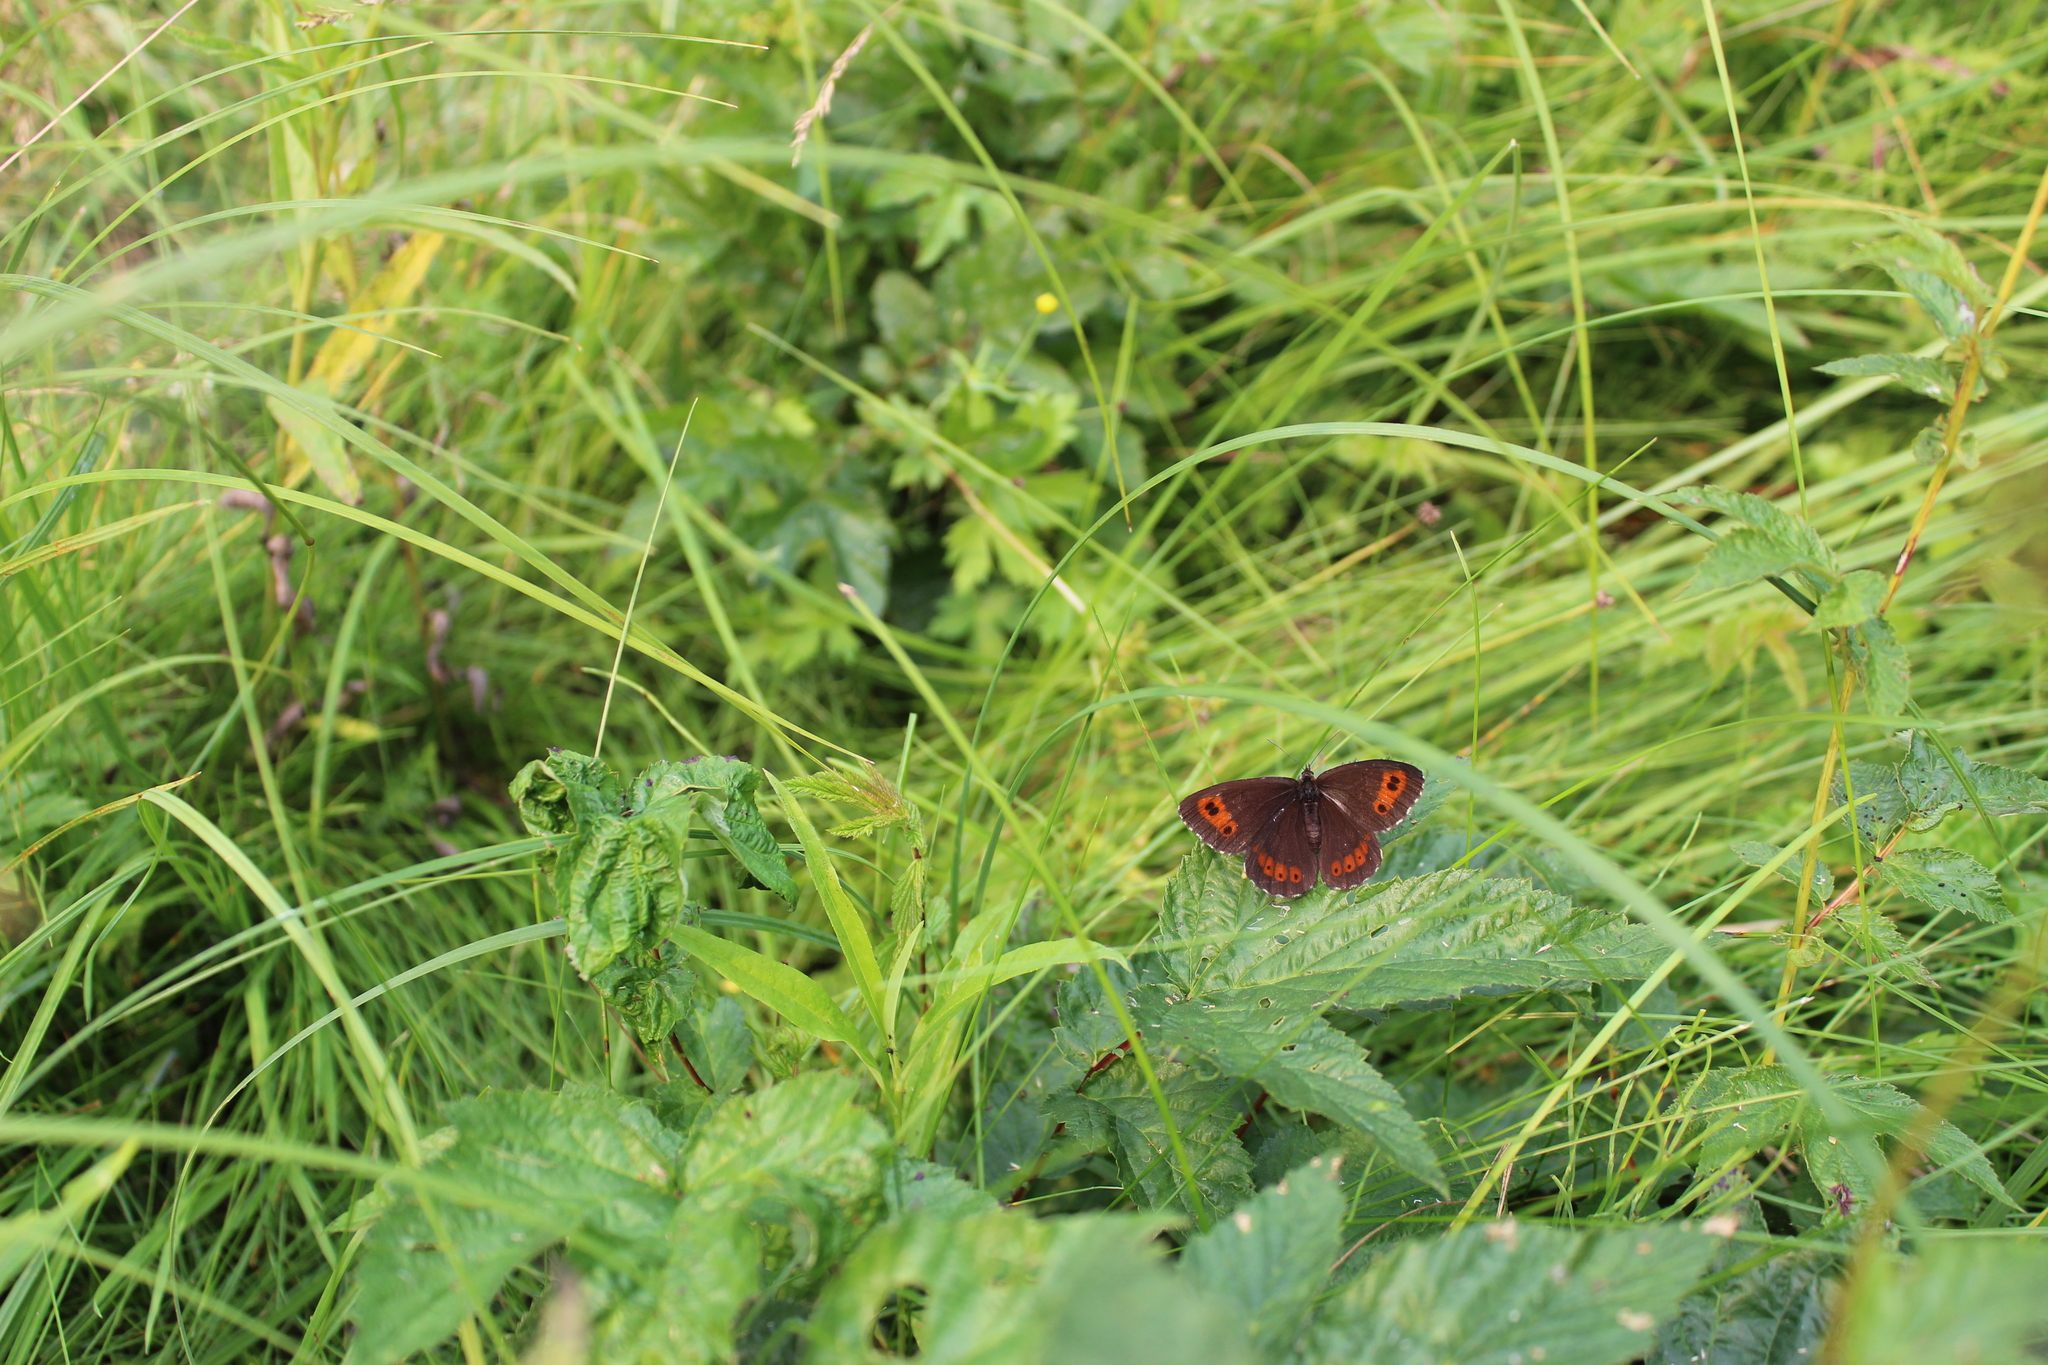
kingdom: Animalia
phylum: Arthropoda
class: Insecta
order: Lepidoptera
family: Nymphalidae
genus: Erebia
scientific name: Erebia ligea
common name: Arran brown
